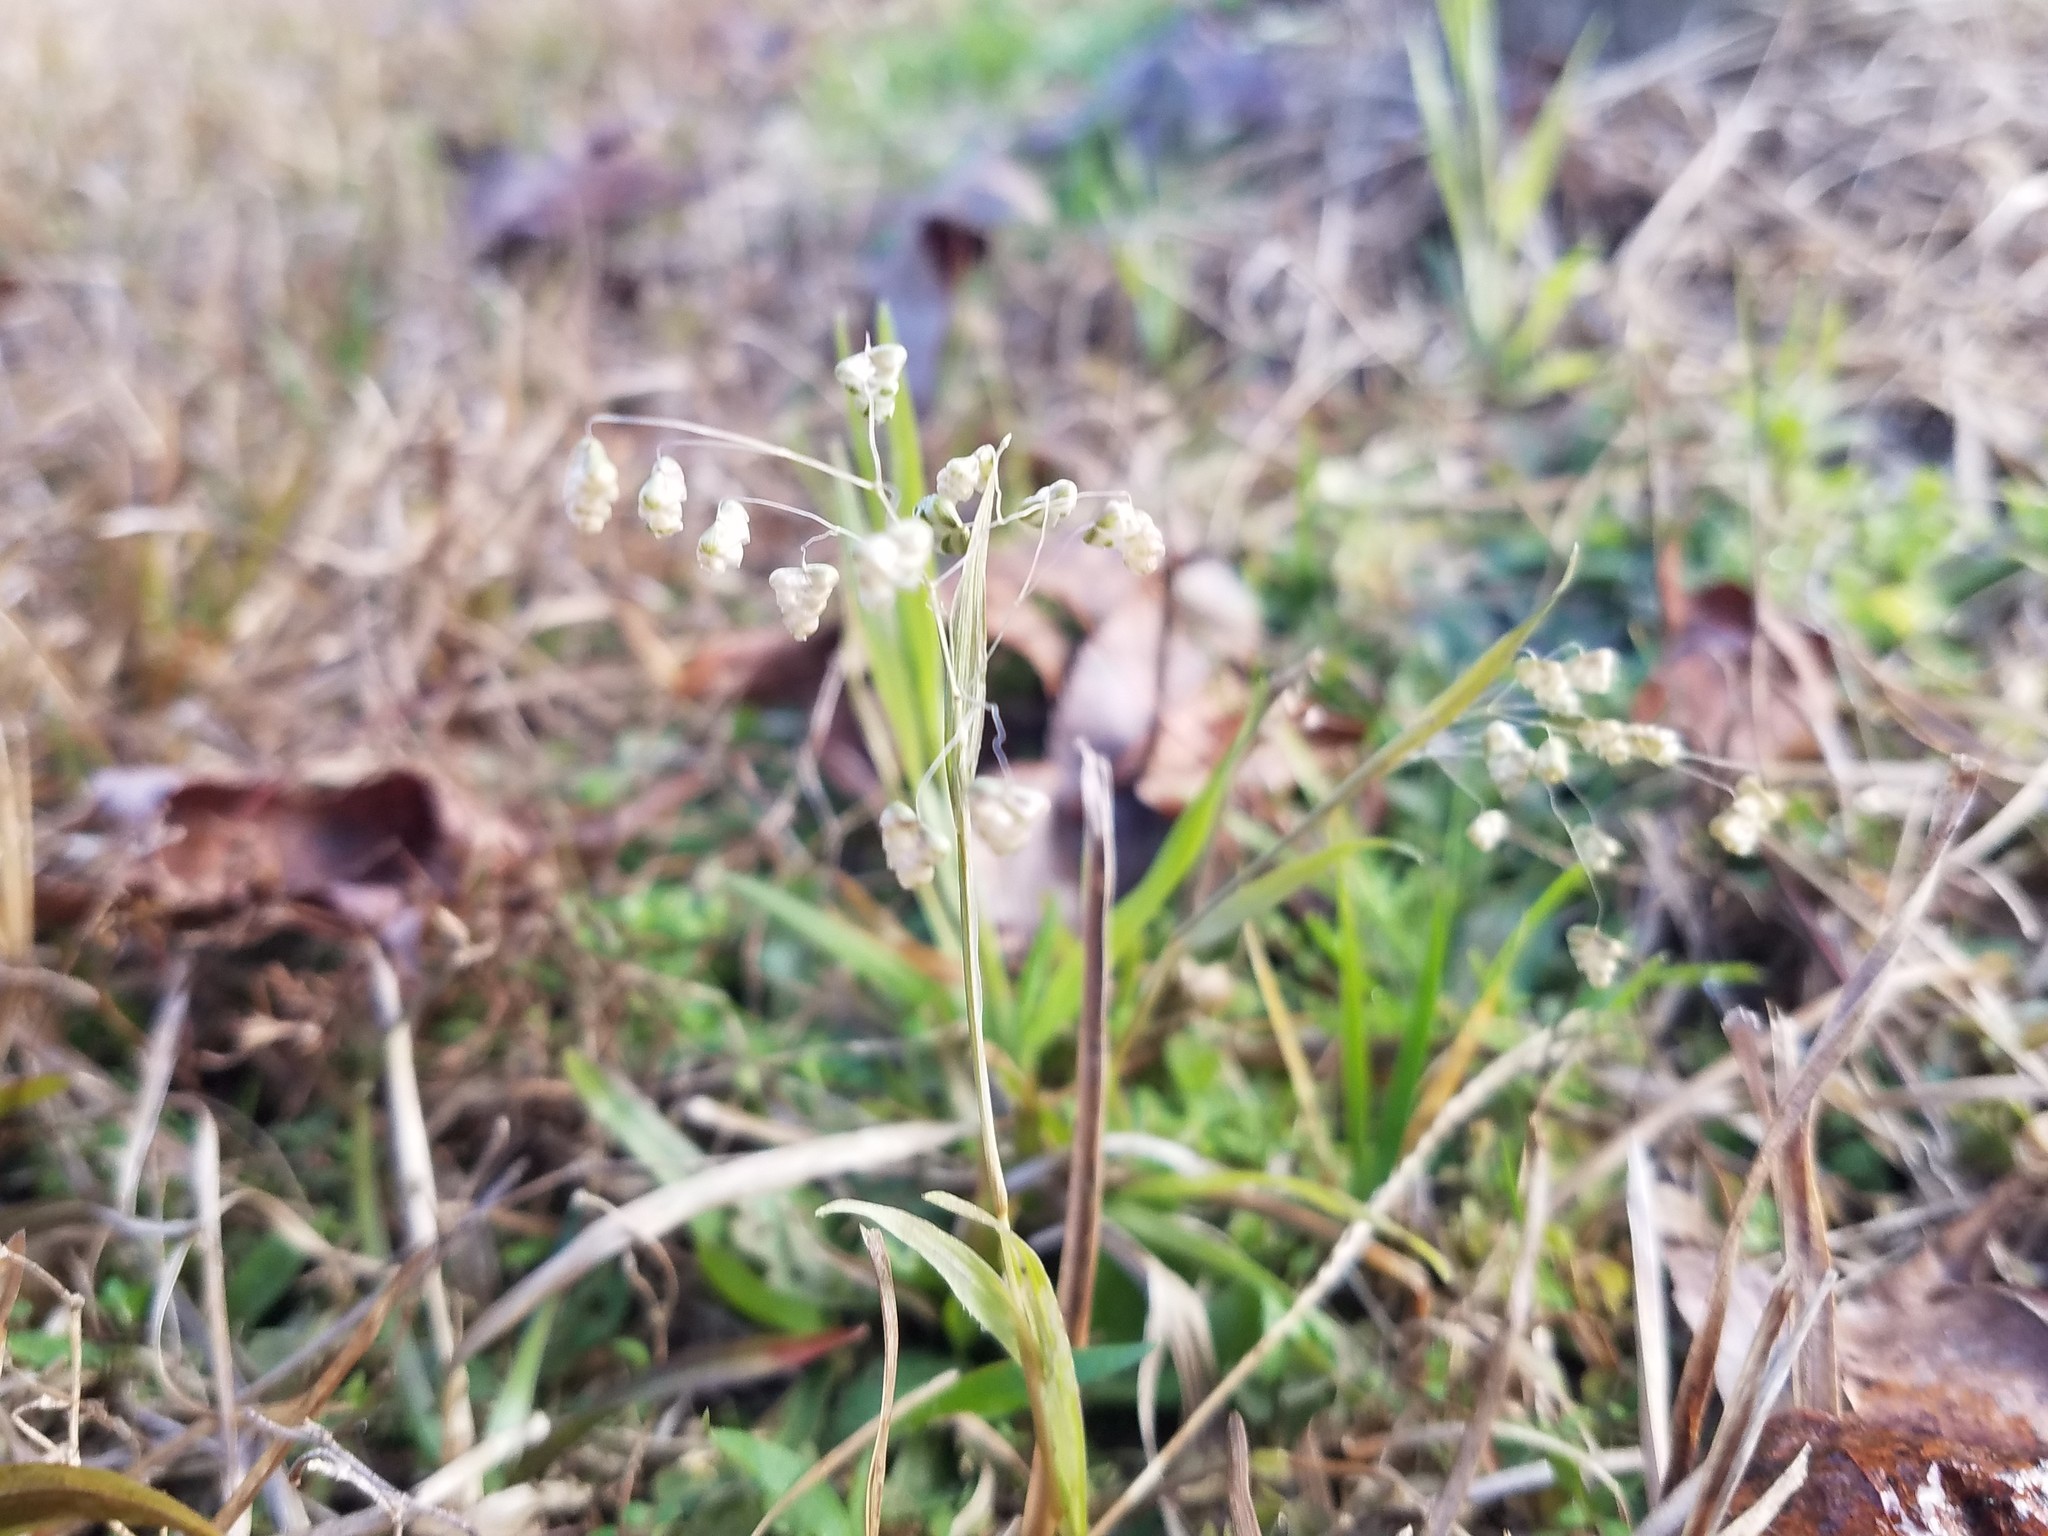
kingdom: Plantae
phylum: Tracheophyta
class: Liliopsida
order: Poales
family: Poaceae
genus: Briza
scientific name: Briza minor
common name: Lesser quaking-grass
